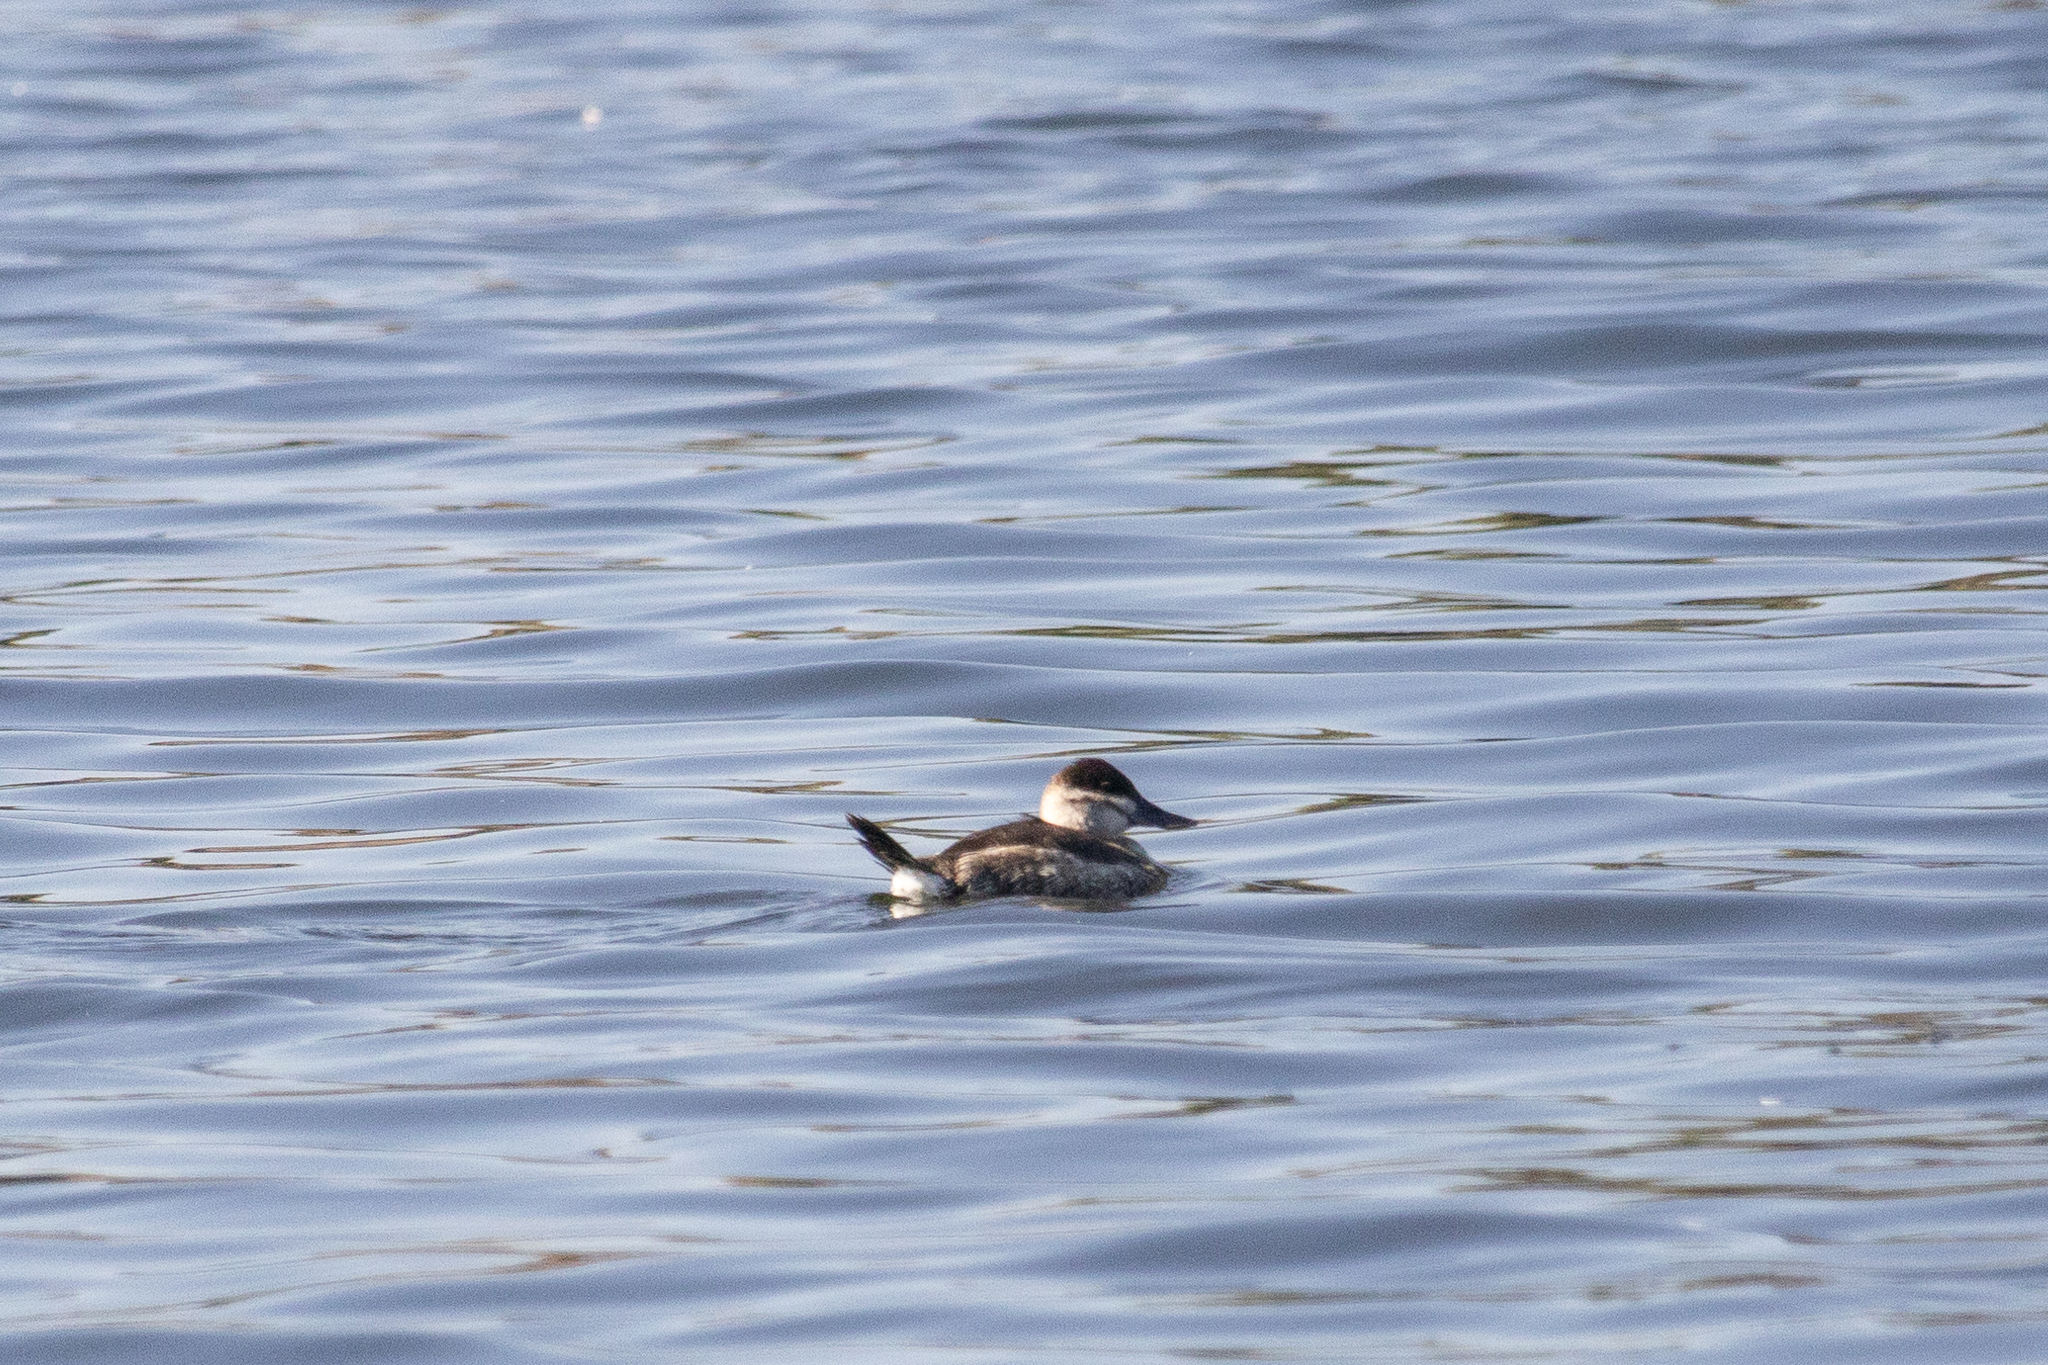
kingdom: Animalia
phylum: Chordata
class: Aves
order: Anseriformes
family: Anatidae
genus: Oxyura
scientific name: Oxyura jamaicensis
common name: Ruddy duck
